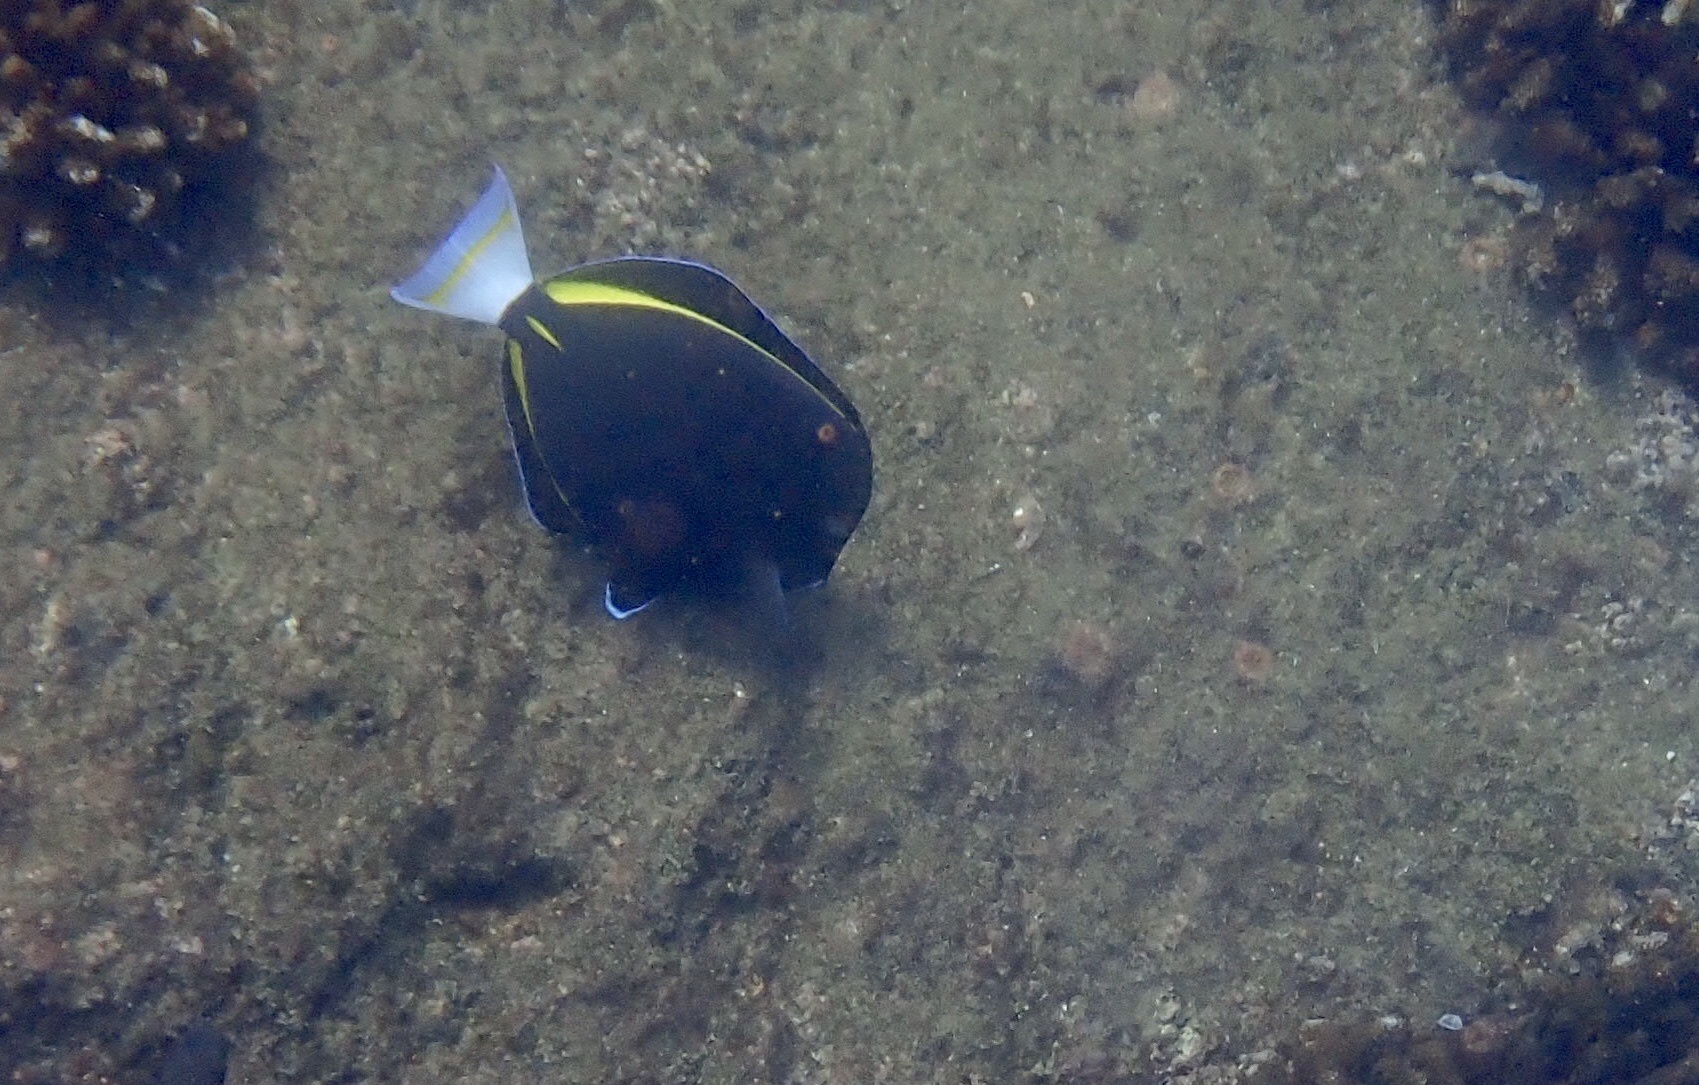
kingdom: Animalia
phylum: Chordata
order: Perciformes
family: Acanthuridae
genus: Acanthurus
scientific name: Acanthurus nigricans
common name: Whitecheek surgeonfish
